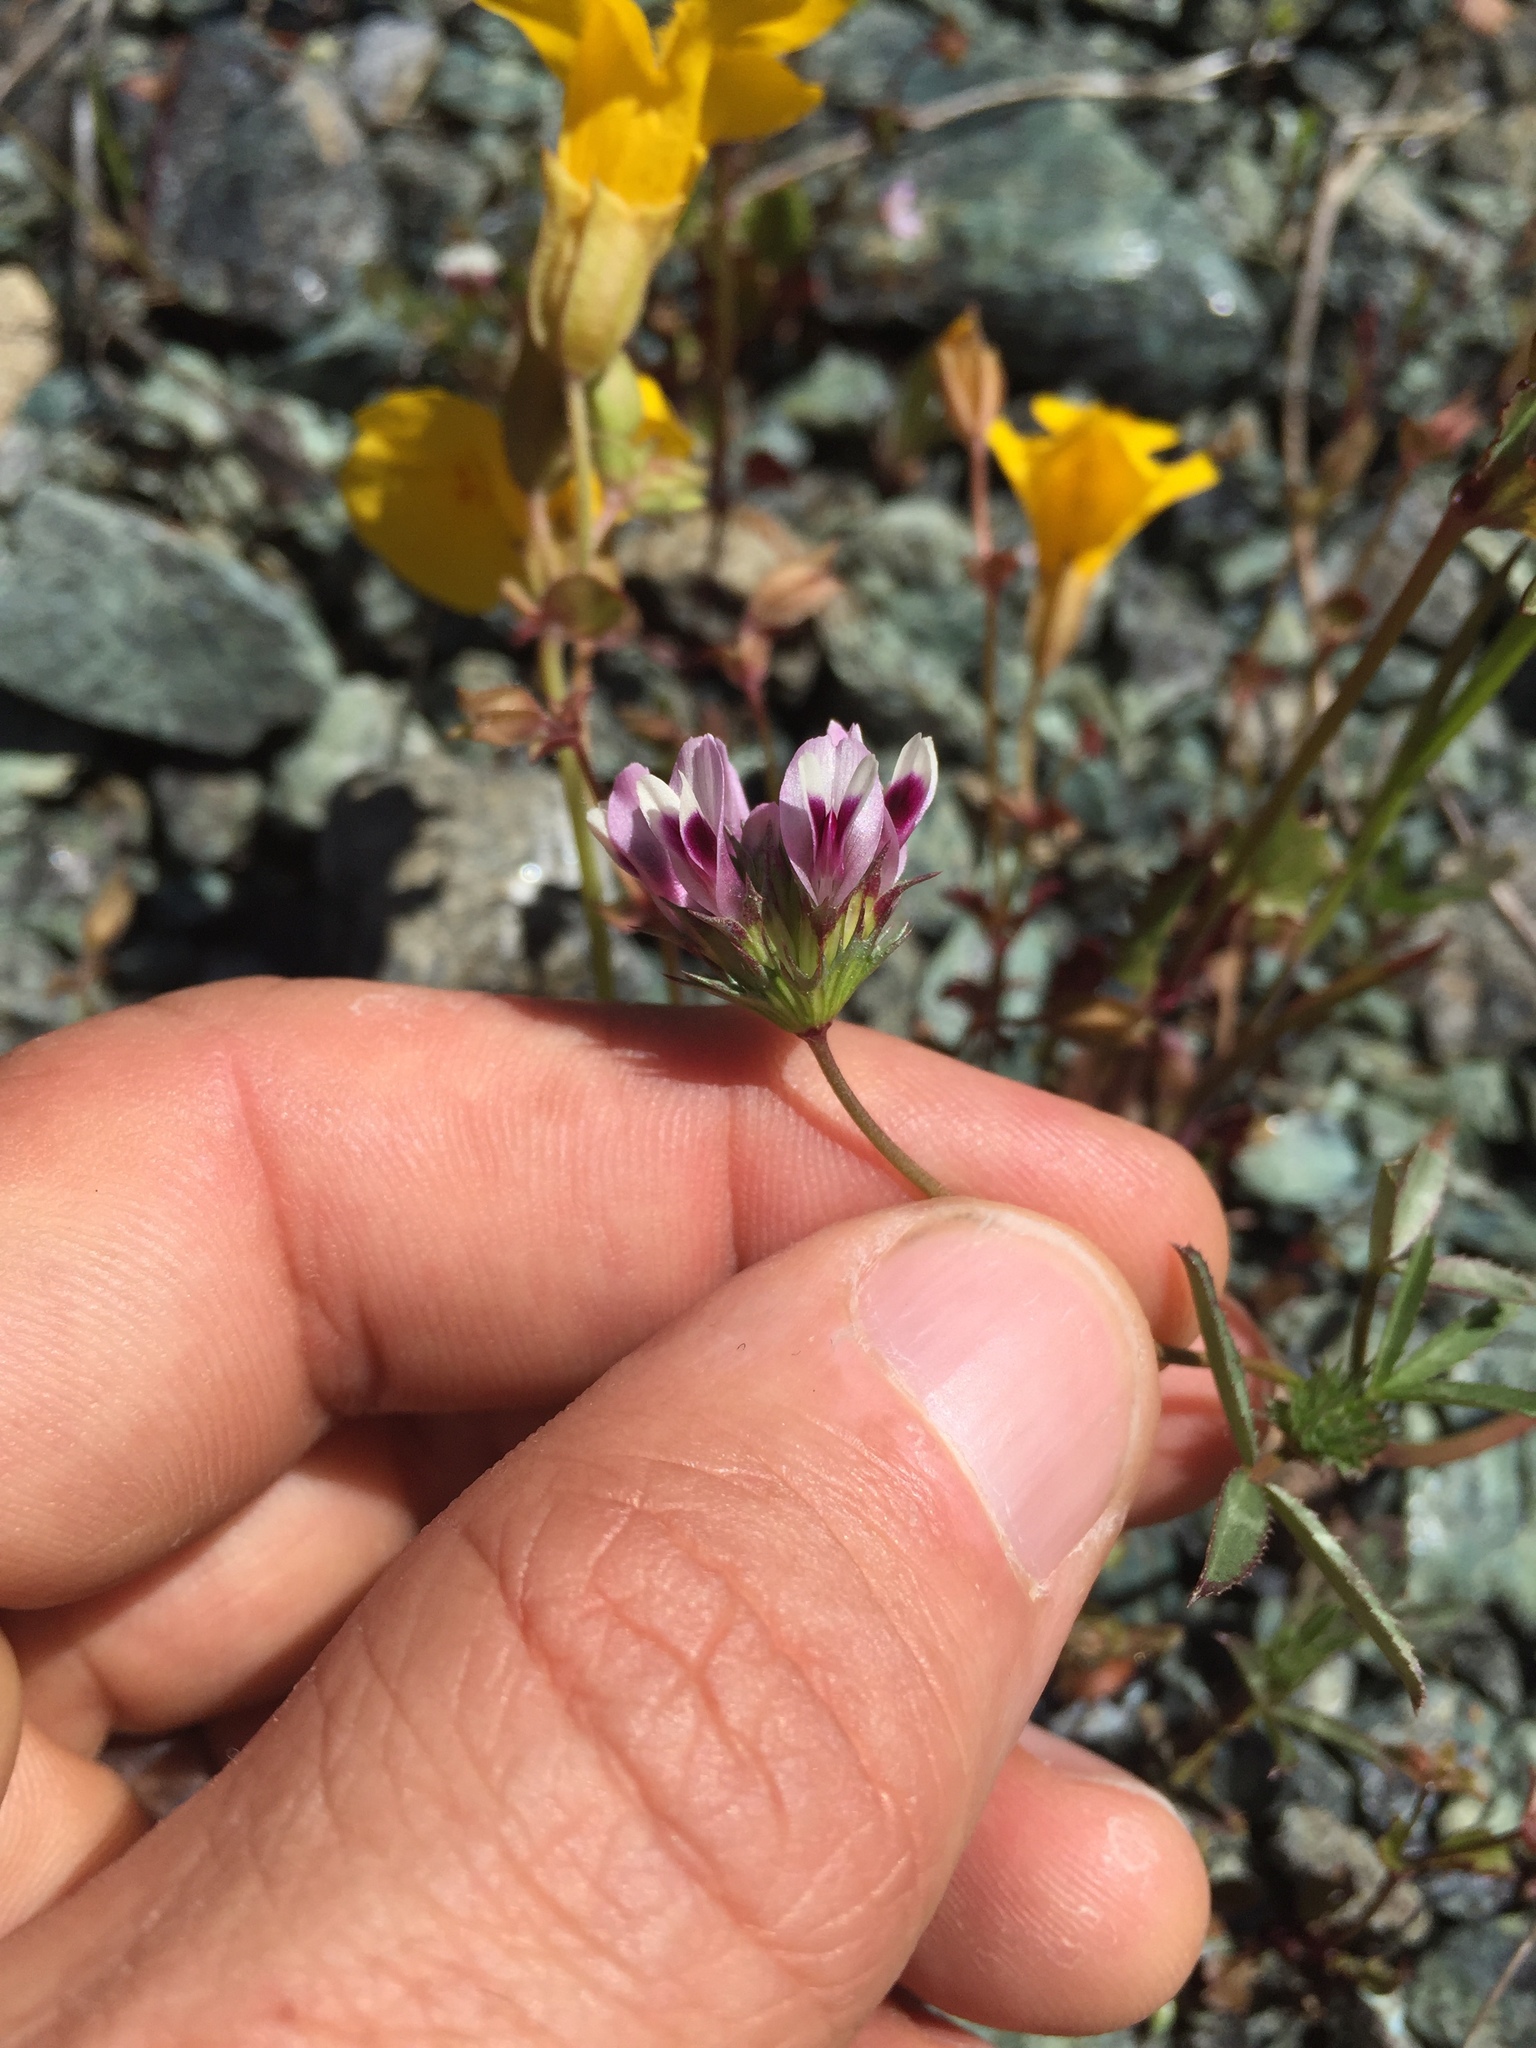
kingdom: Plantae
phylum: Tracheophyta
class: Magnoliopsida
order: Fabales
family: Fabaceae
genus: Trifolium
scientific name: Trifolium willdenovii
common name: Tomcat clover
